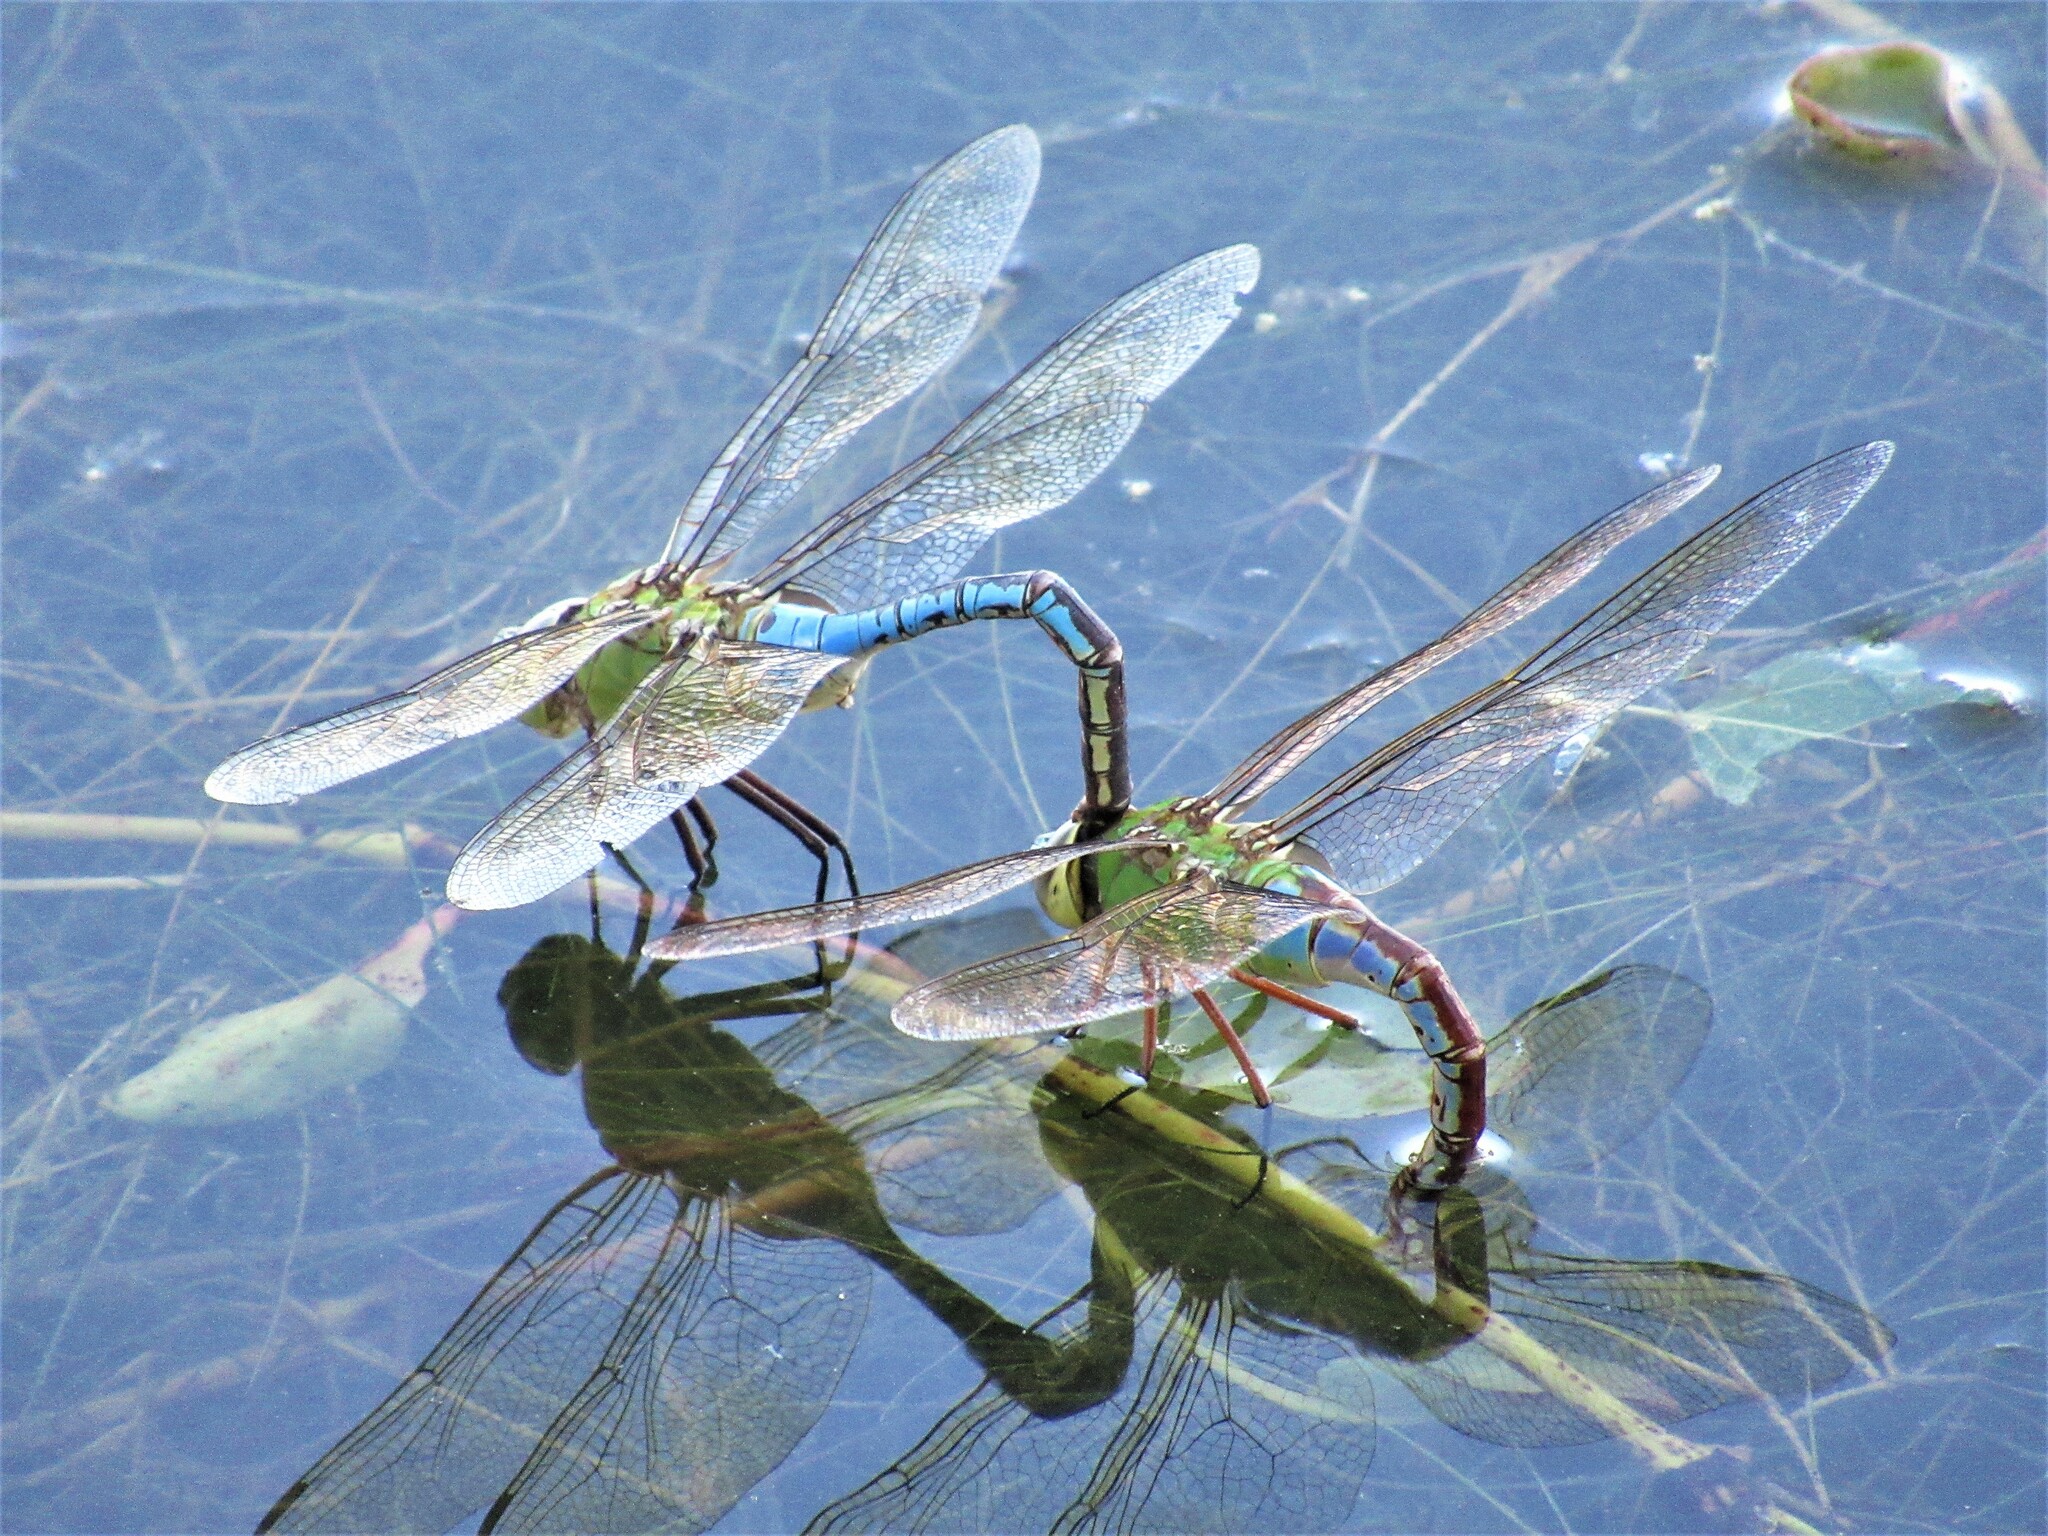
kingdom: Animalia
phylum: Arthropoda
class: Insecta
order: Odonata
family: Aeshnidae
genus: Anax
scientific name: Anax junius
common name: Common green darner
